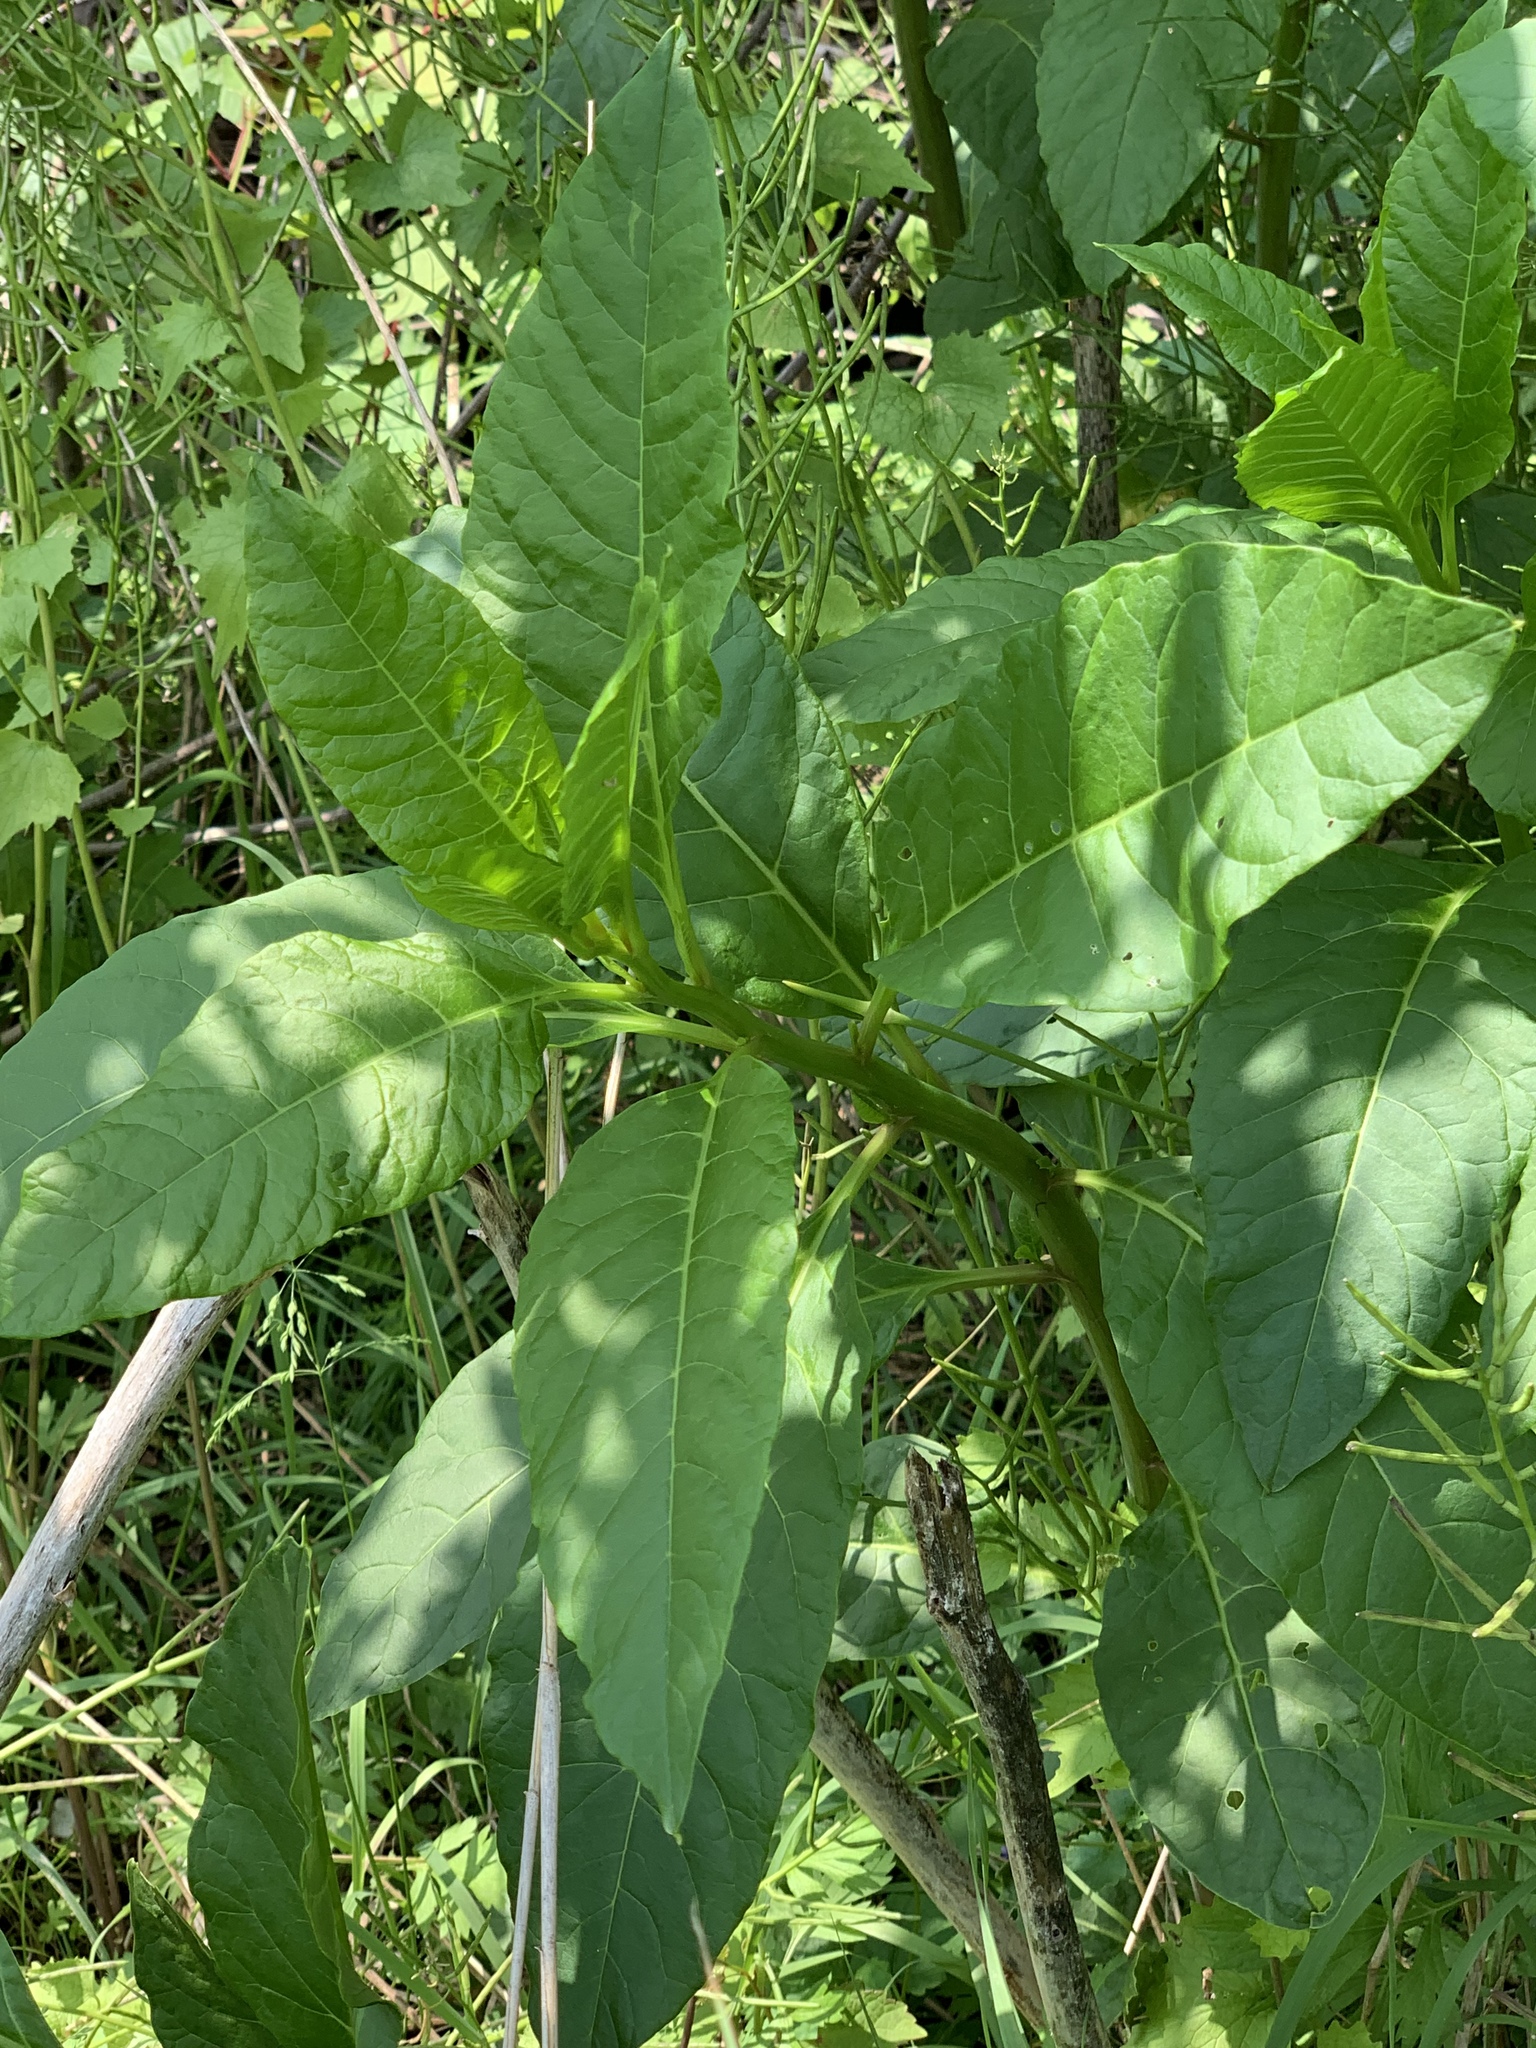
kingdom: Plantae
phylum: Tracheophyta
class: Magnoliopsida
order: Caryophyllales
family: Phytolaccaceae
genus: Phytolacca
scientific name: Phytolacca americana
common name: American pokeweed
